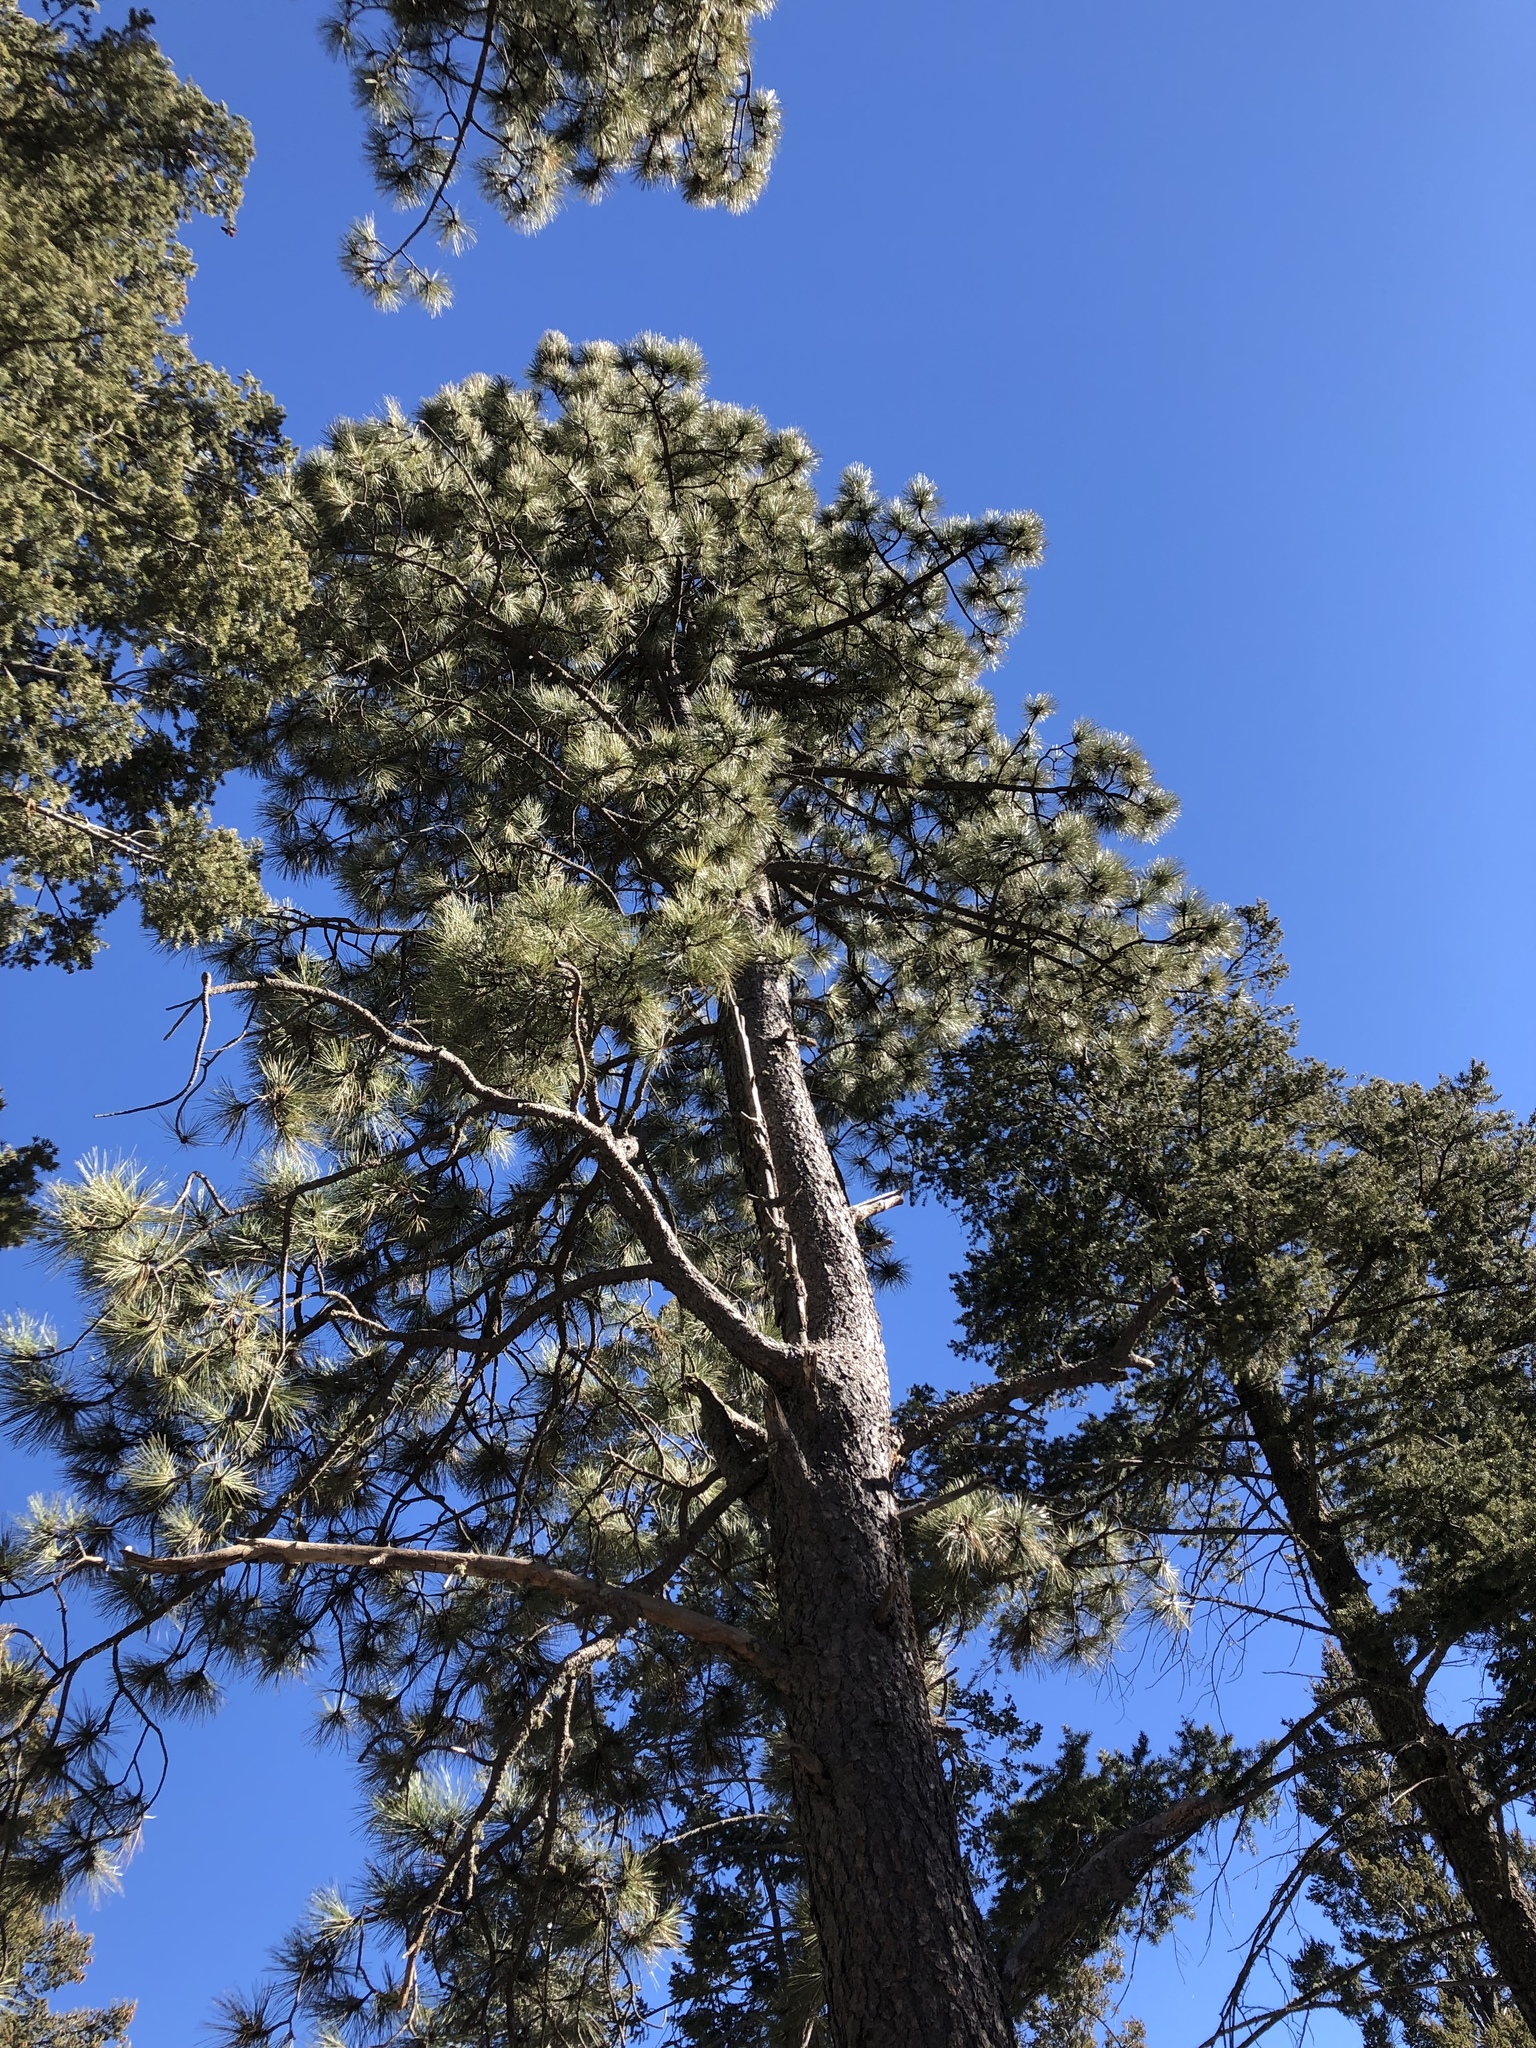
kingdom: Plantae
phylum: Tracheophyta
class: Pinopsida
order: Pinales
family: Pinaceae
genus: Pinus
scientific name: Pinus ponderosa
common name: Western yellow-pine
